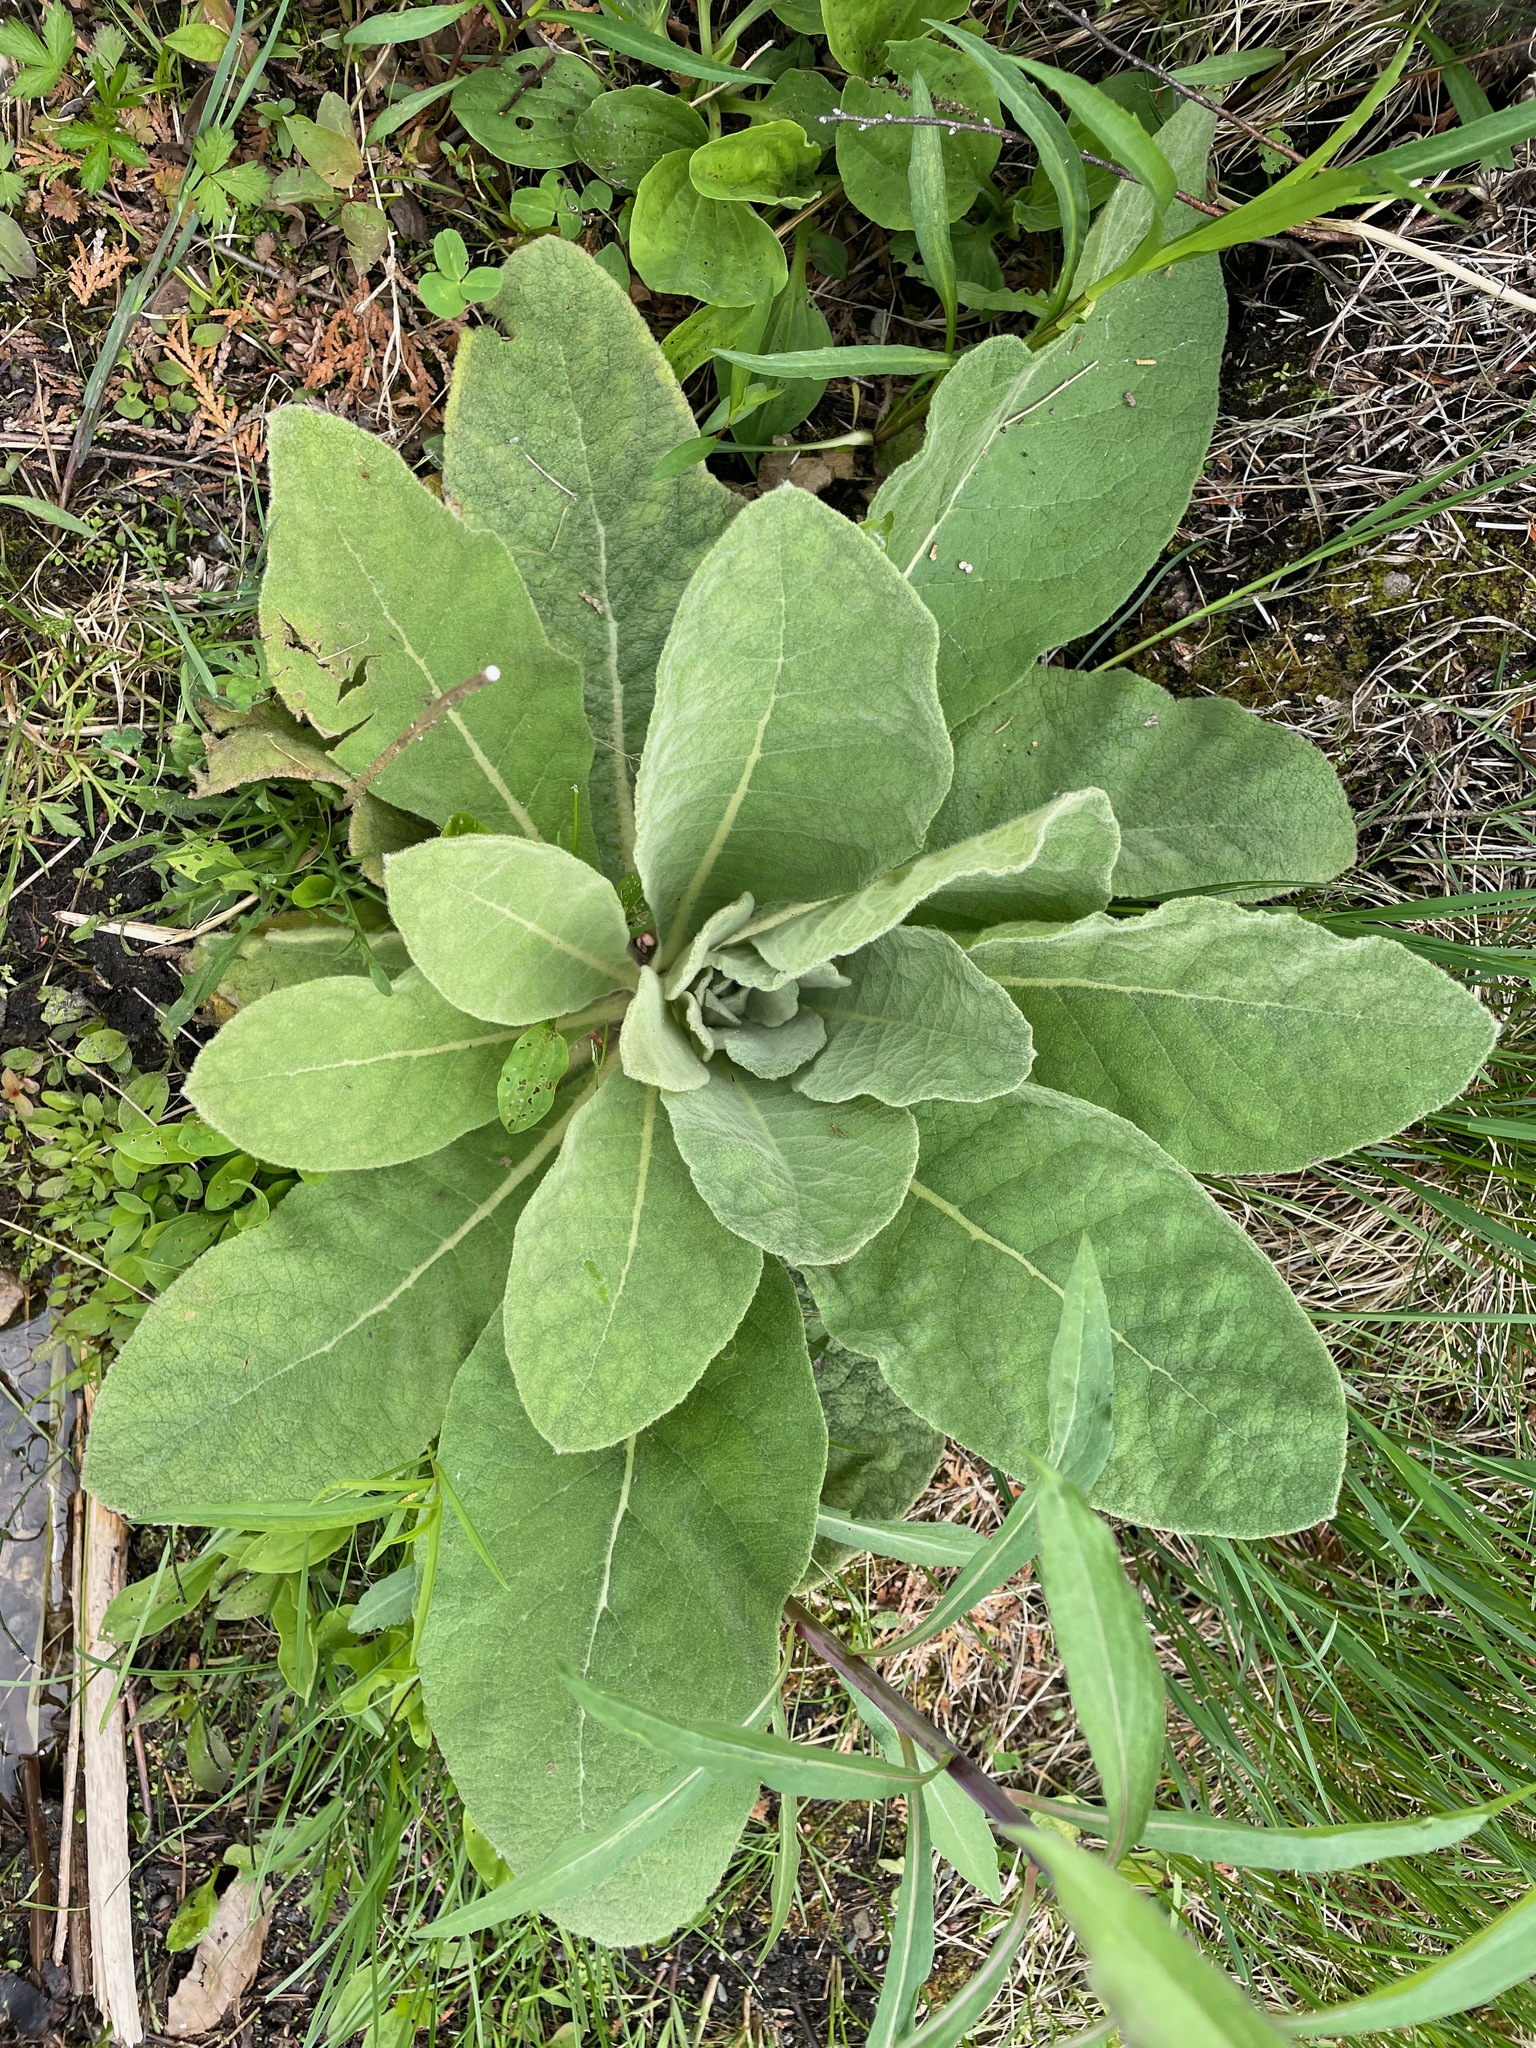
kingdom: Plantae
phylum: Tracheophyta
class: Magnoliopsida
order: Lamiales
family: Scrophulariaceae
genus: Verbascum
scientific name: Verbascum thapsus
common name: Common mullein
